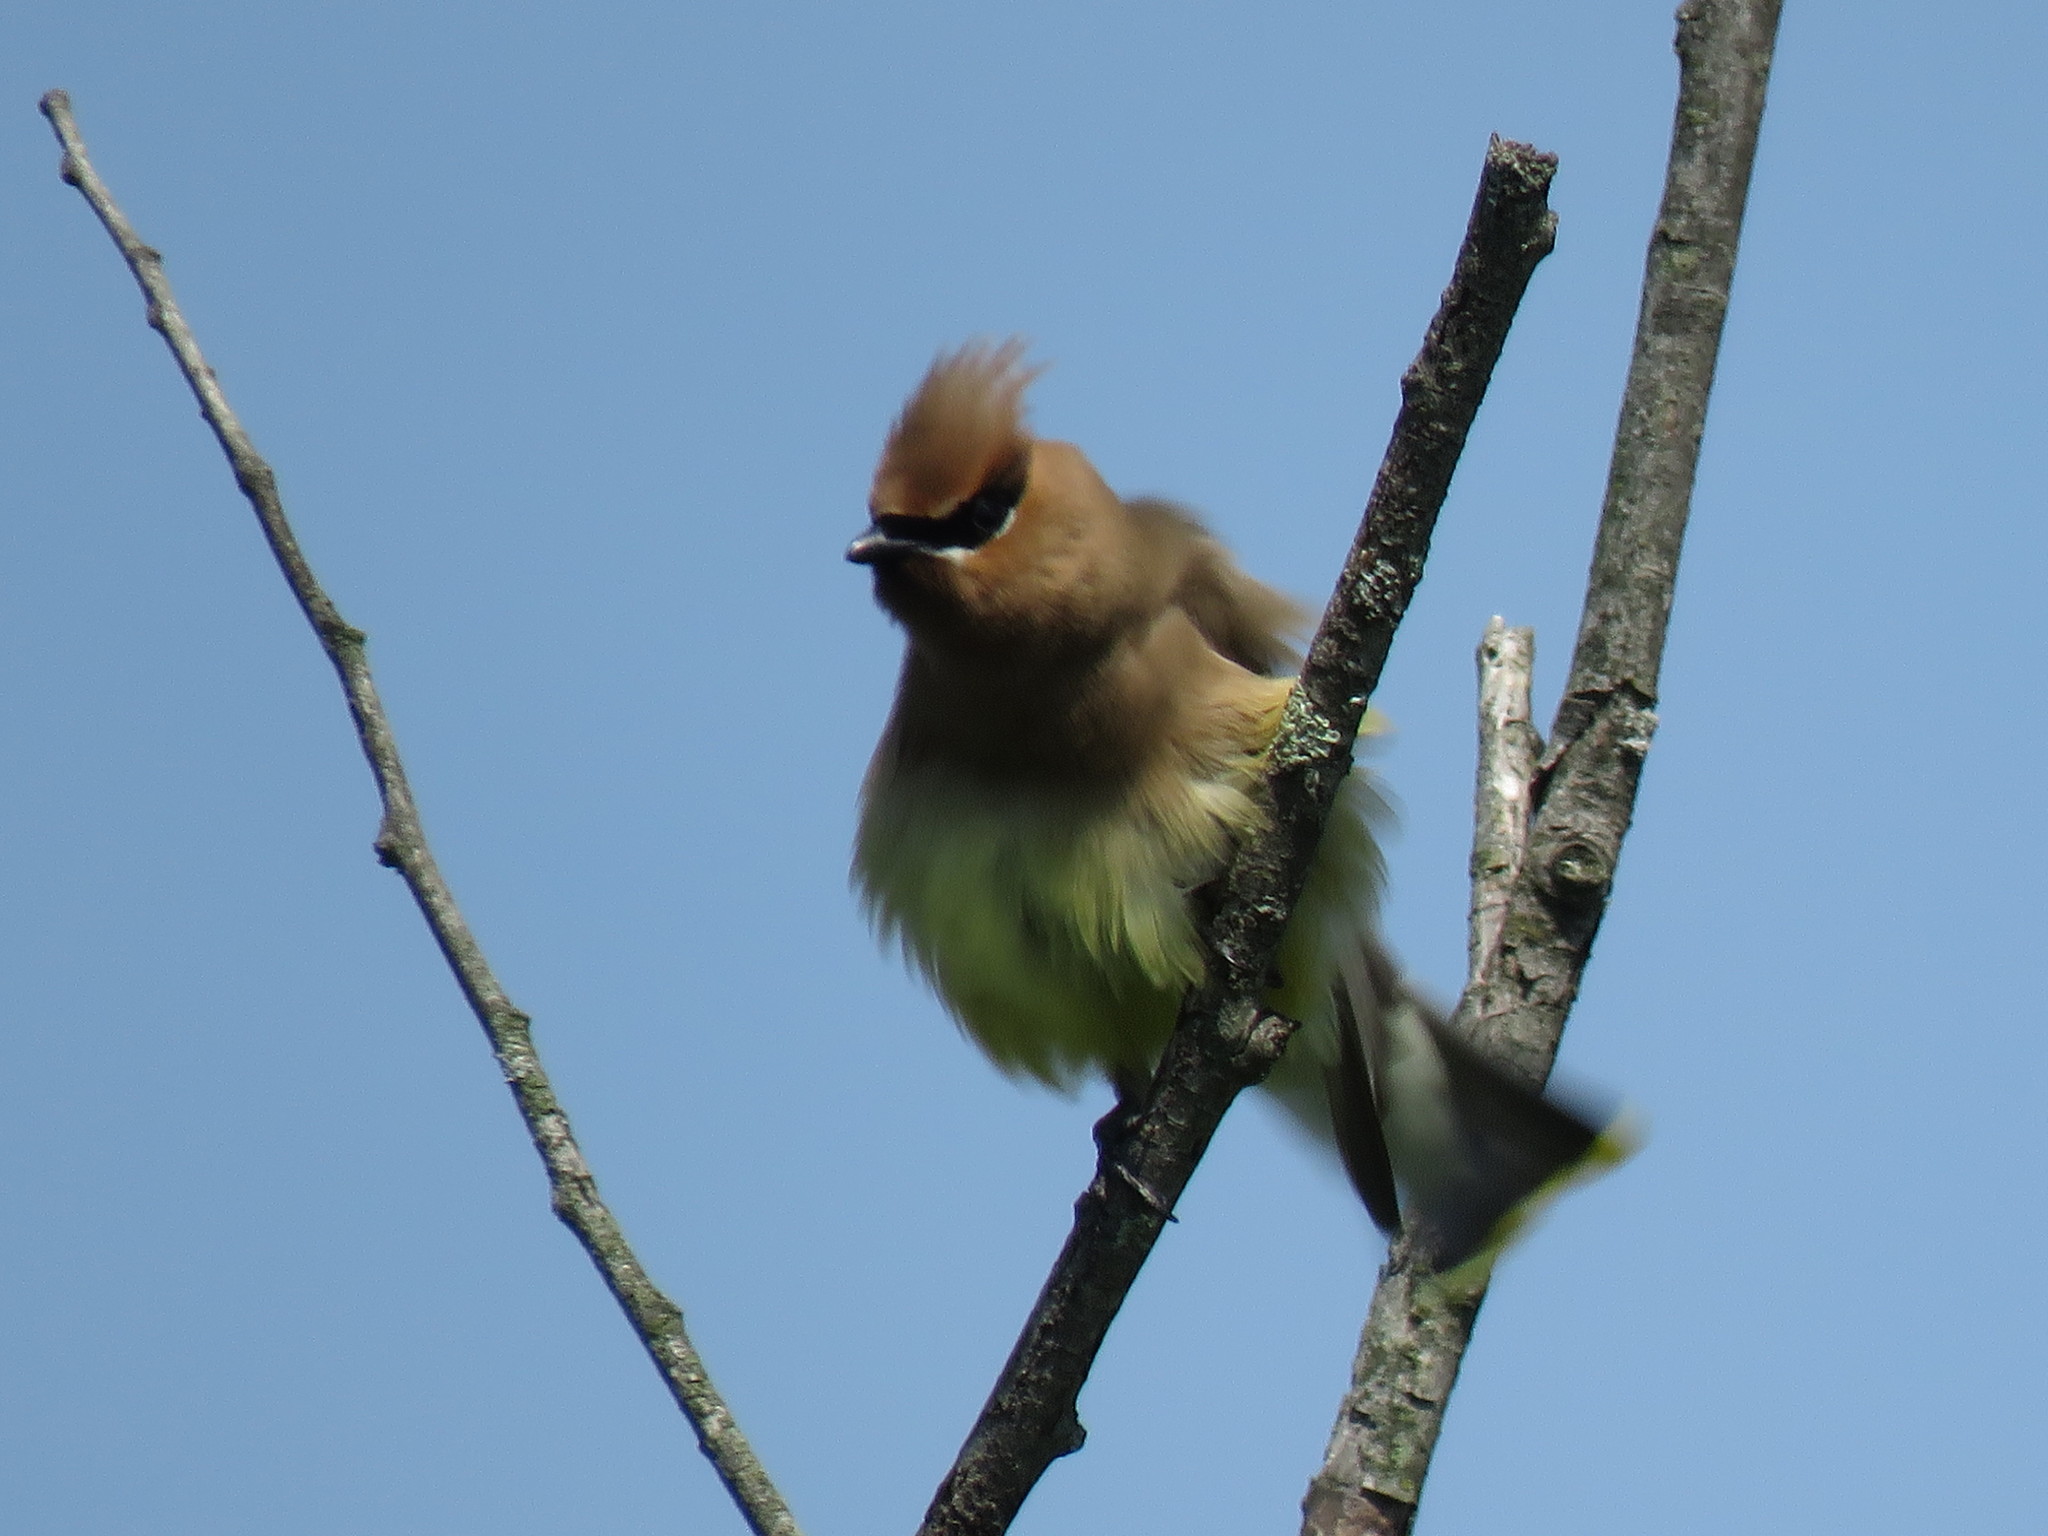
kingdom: Animalia
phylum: Chordata
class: Aves
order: Passeriformes
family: Bombycillidae
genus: Bombycilla
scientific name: Bombycilla cedrorum
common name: Cedar waxwing
